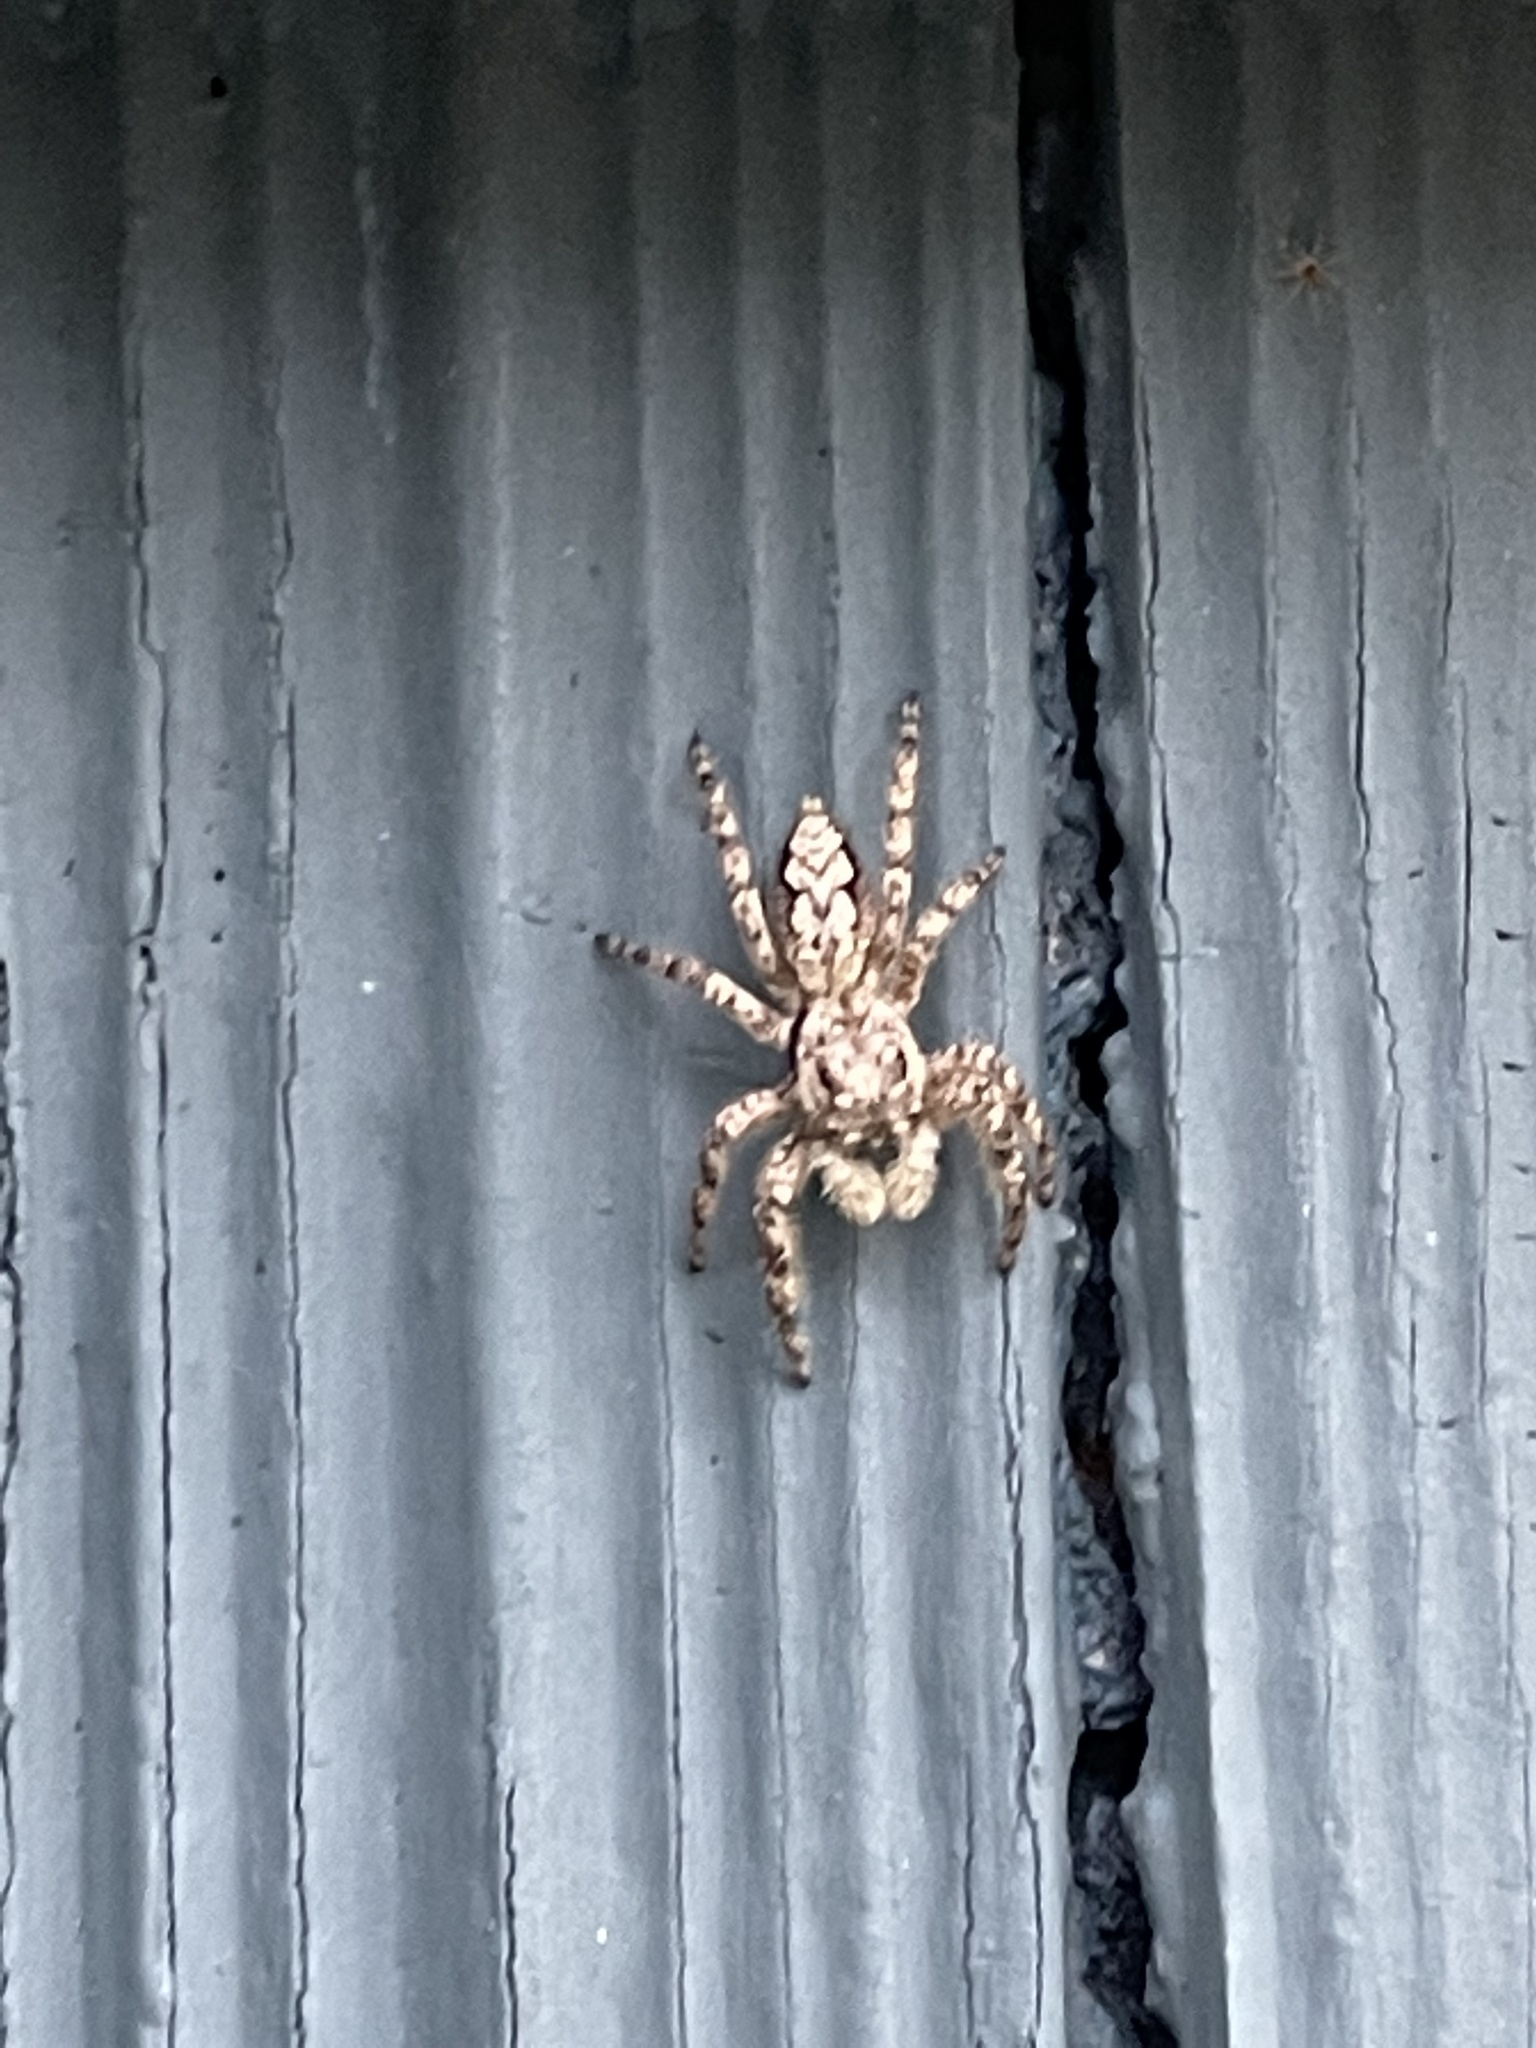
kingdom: Animalia
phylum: Arthropoda
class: Arachnida
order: Araneae
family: Salticidae
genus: Platycryptus
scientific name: Platycryptus undatus
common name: Tan jumping spider
